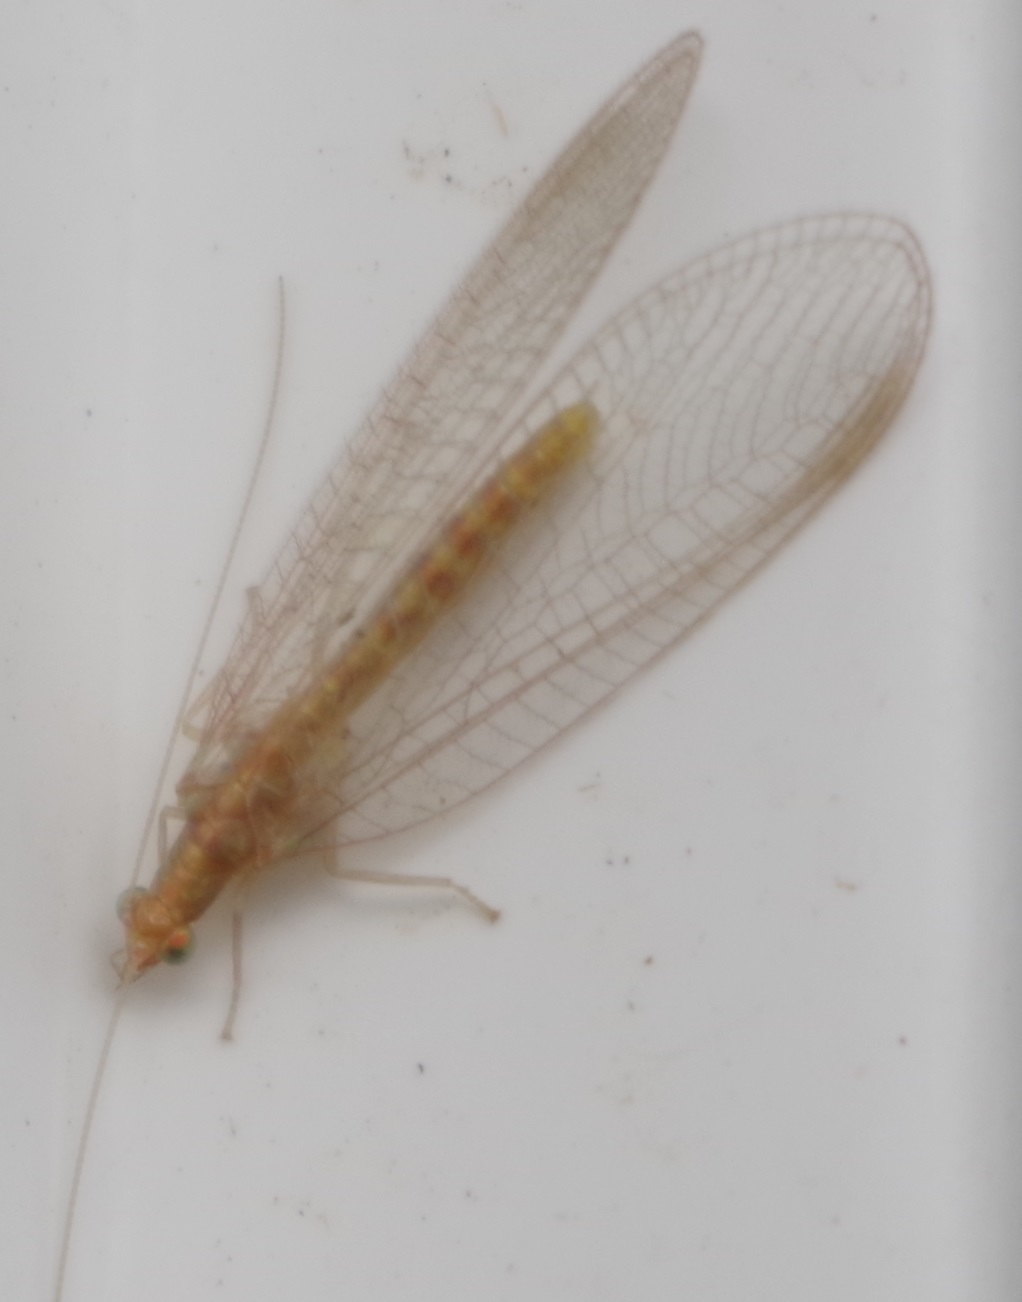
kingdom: Animalia
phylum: Arthropoda
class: Insecta
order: Neuroptera
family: Chrysopidae
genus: Chrysoperla
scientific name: Chrysoperla
